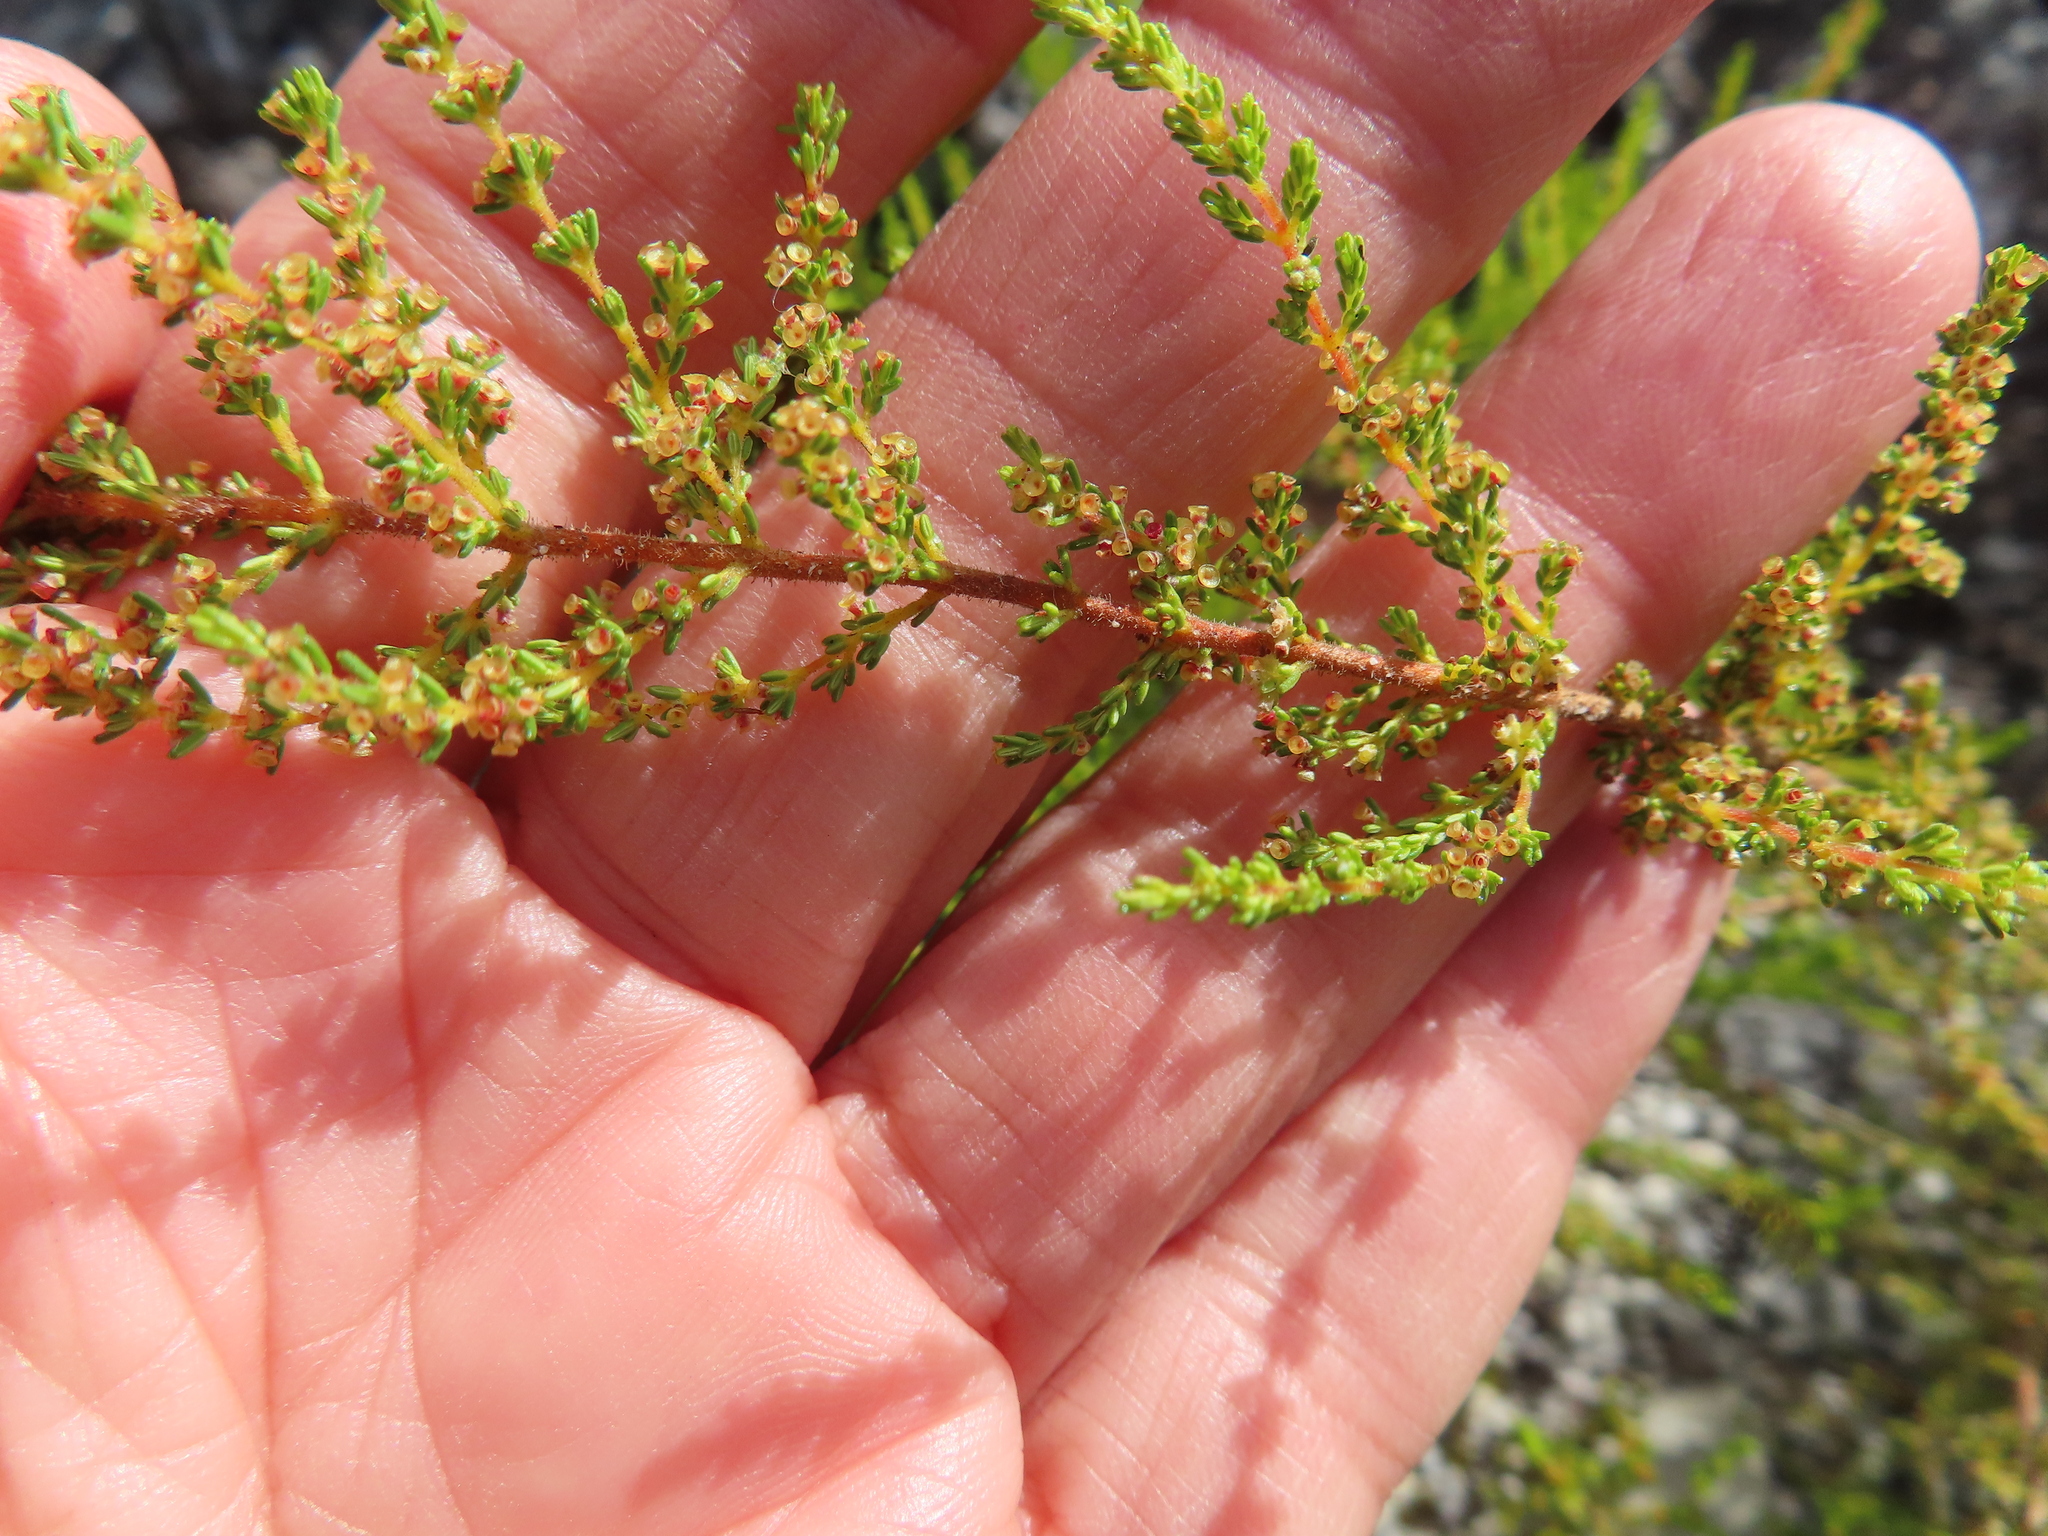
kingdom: Plantae
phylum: Tracheophyta
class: Magnoliopsida
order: Ericales
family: Ericaceae
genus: Erica
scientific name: Erica muscosa
